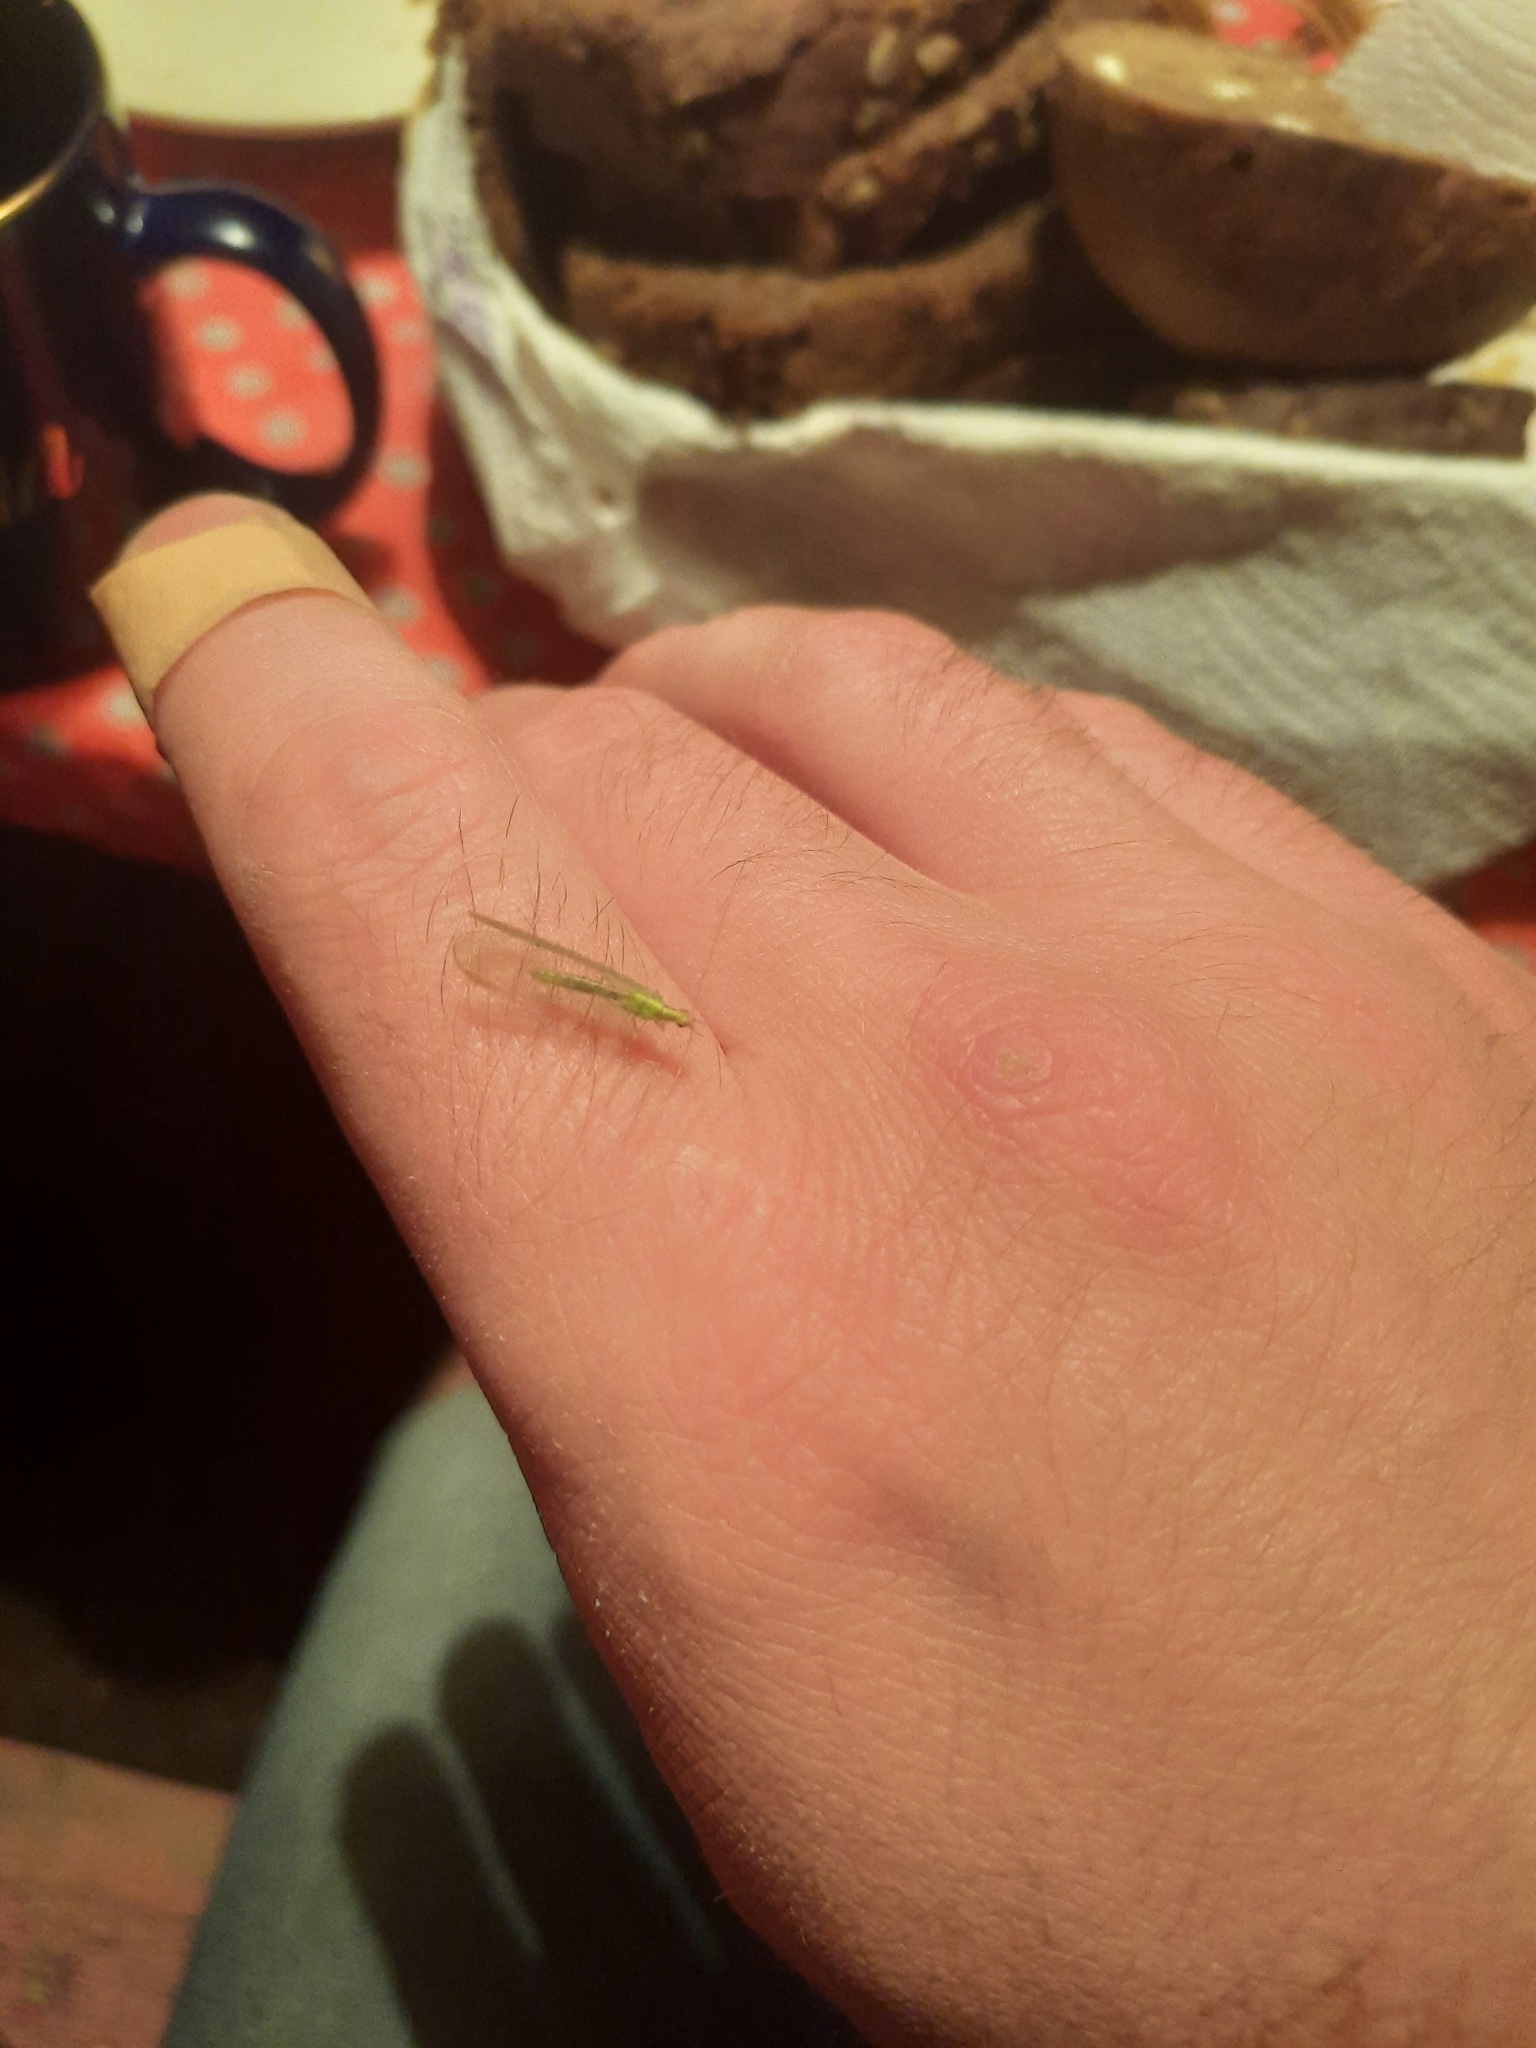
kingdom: Animalia
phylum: Arthropoda
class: Insecta
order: Neuroptera
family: Chrysopidae
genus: Chrysoperla
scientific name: Chrysoperla
